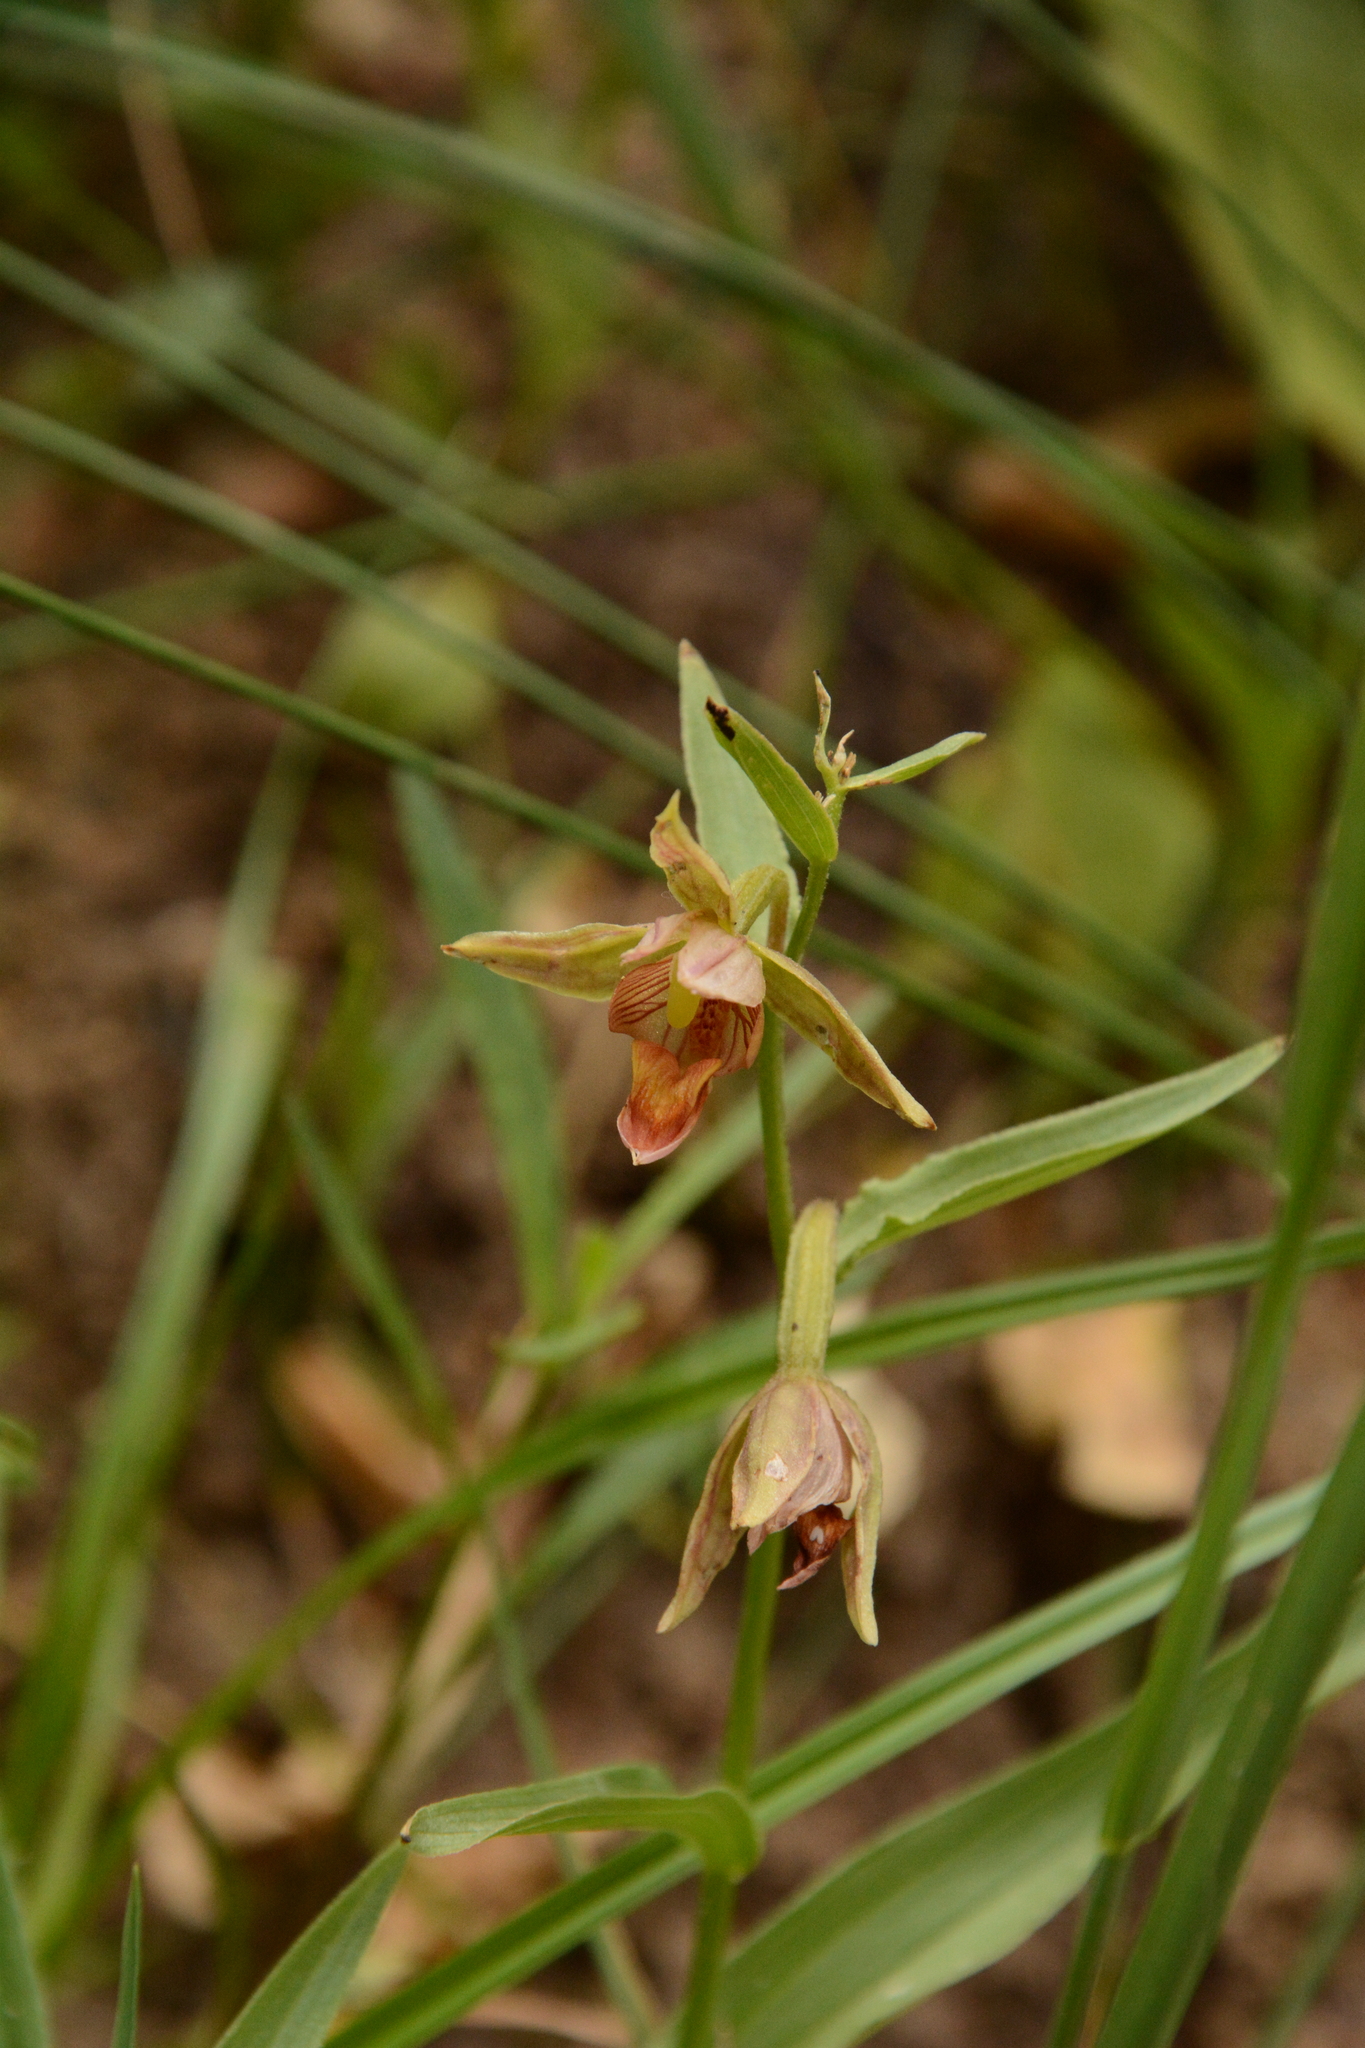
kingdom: Plantae
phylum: Tracheophyta
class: Liliopsida
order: Asparagales
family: Orchidaceae
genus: Epipactis
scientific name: Epipactis gigantea
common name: Chatterbox
